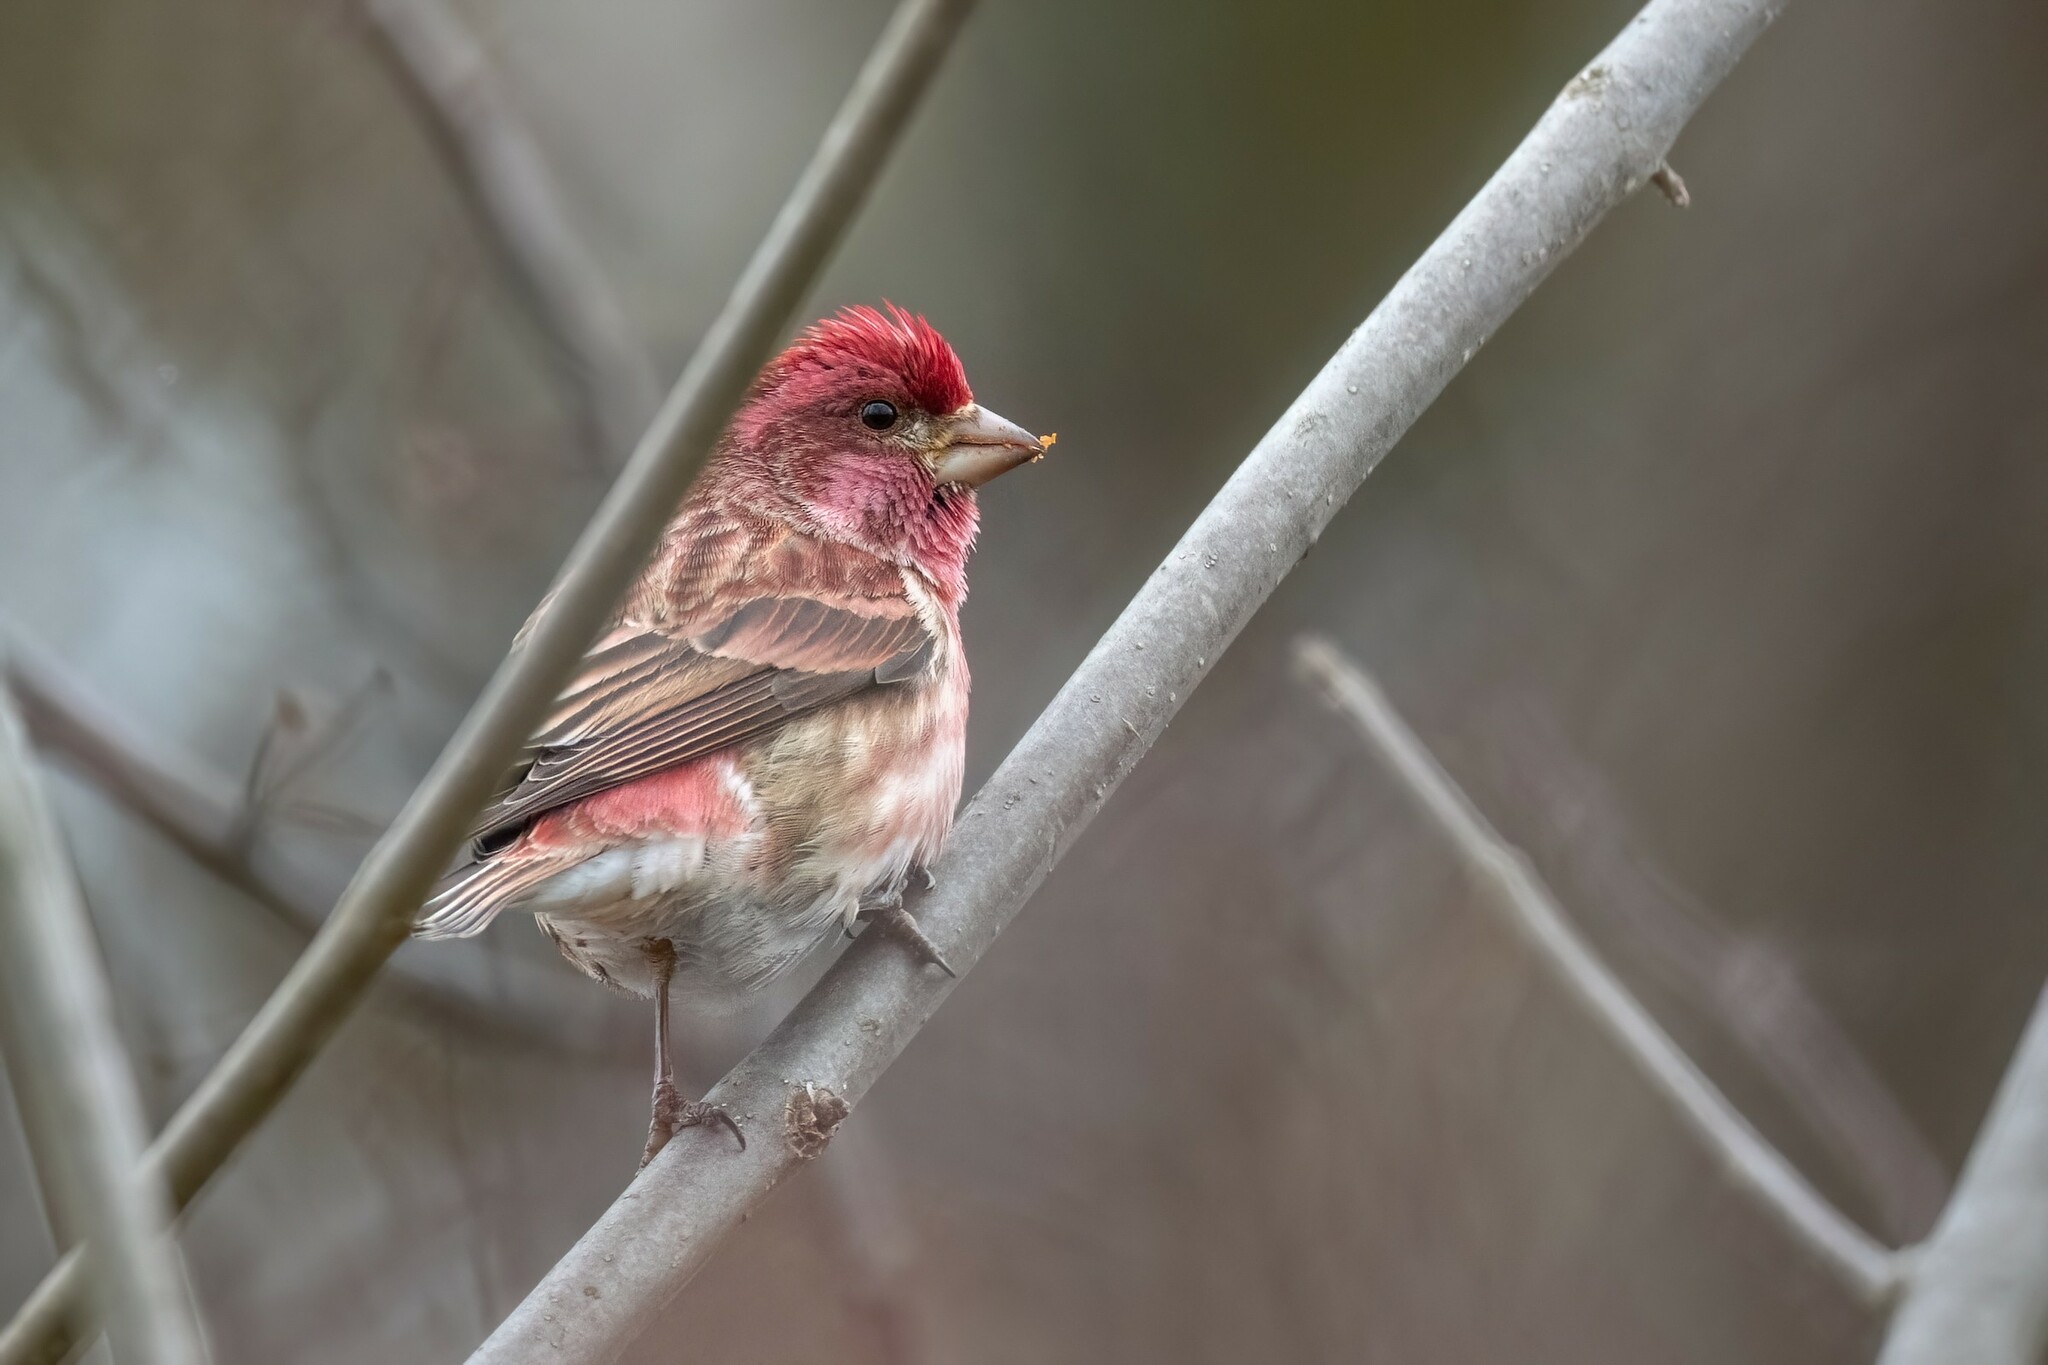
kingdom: Animalia
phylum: Chordata
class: Aves
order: Passeriformes
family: Fringillidae
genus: Haemorhous
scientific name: Haemorhous purpureus
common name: Purple finch
